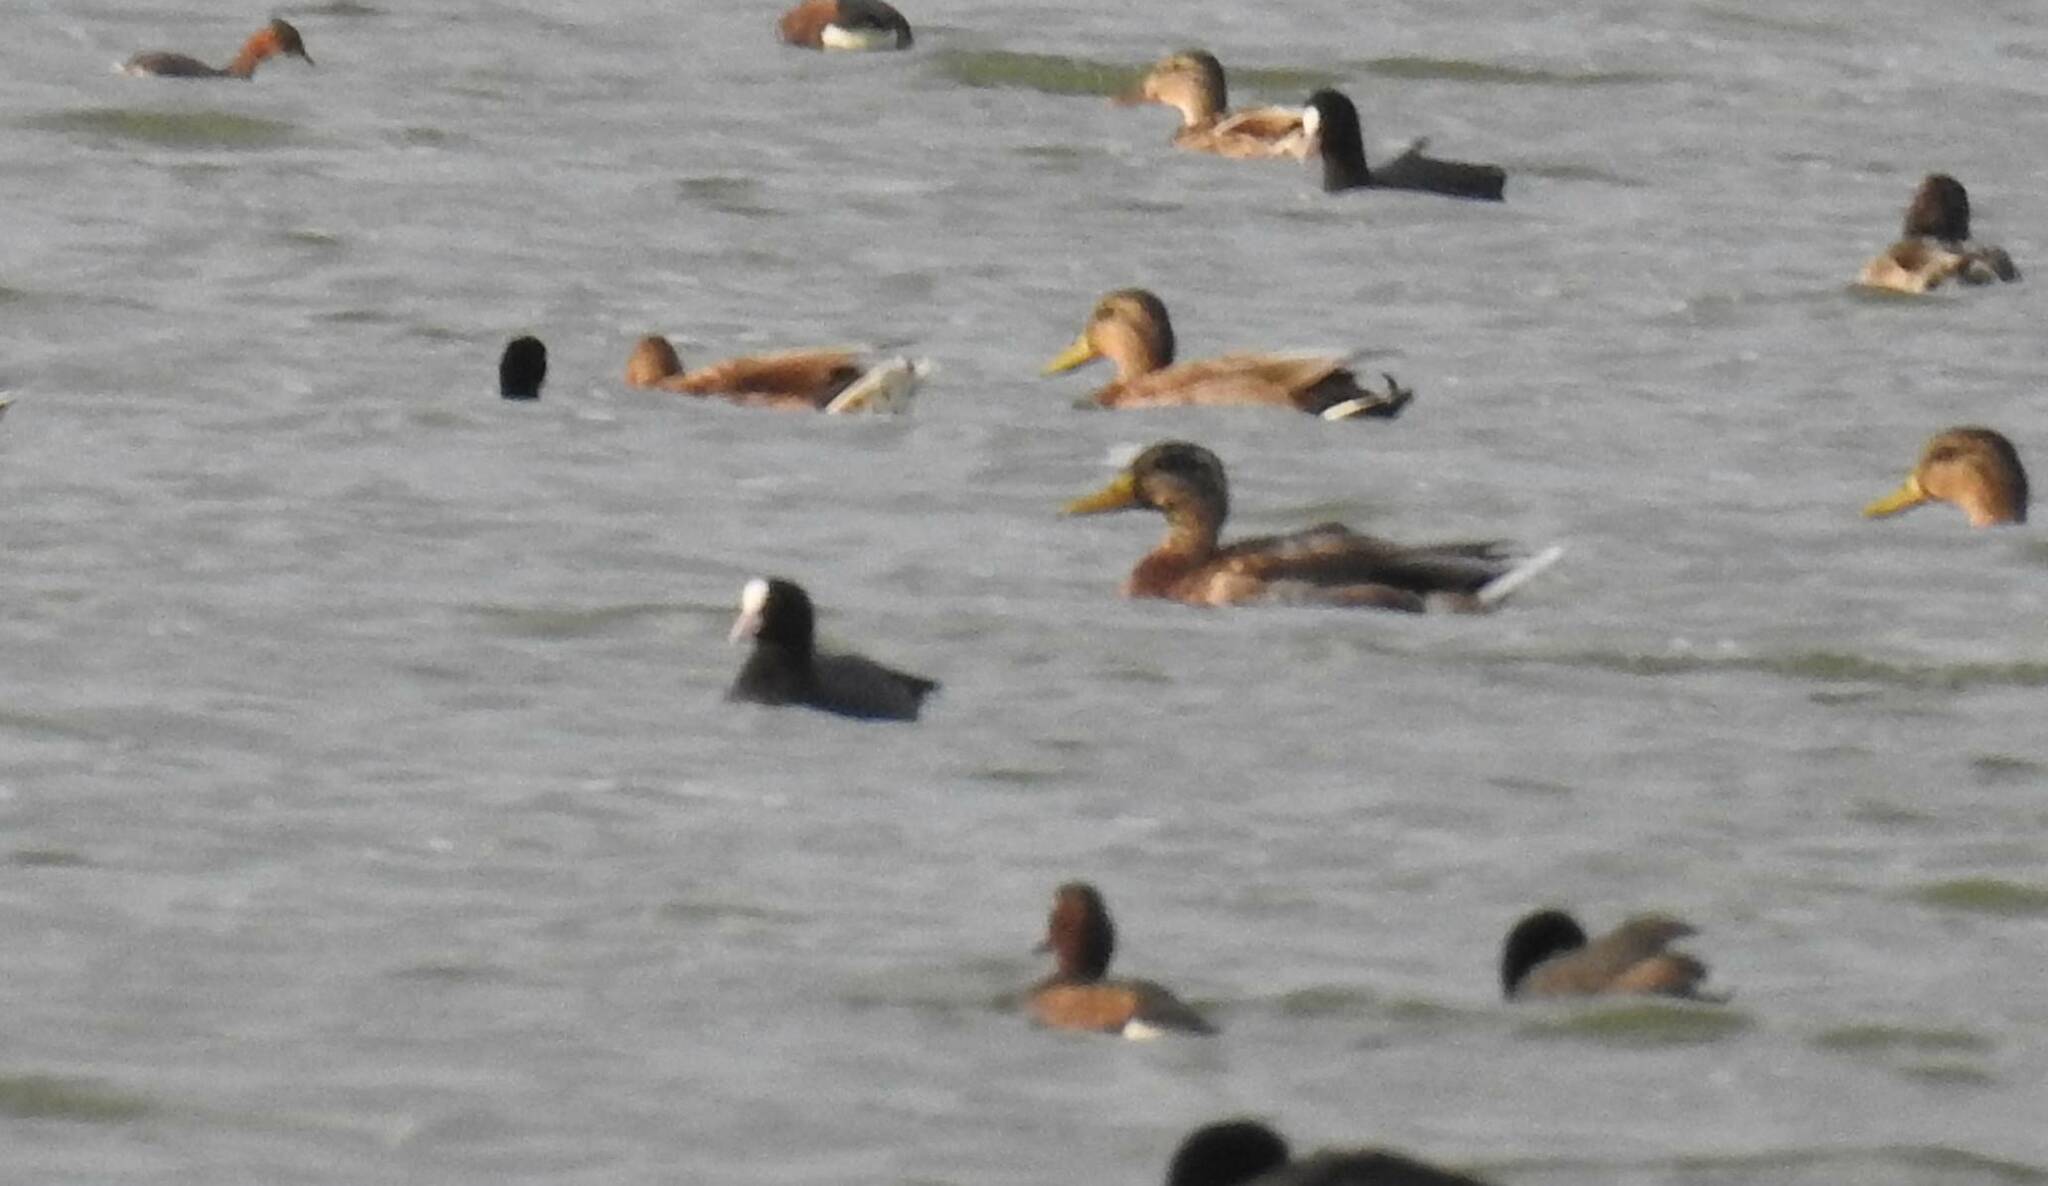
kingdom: Animalia
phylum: Chordata
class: Aves
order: Anseriformes
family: Anatidae
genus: Aythya
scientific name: Aythya nyroca
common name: Ferruginous duck
